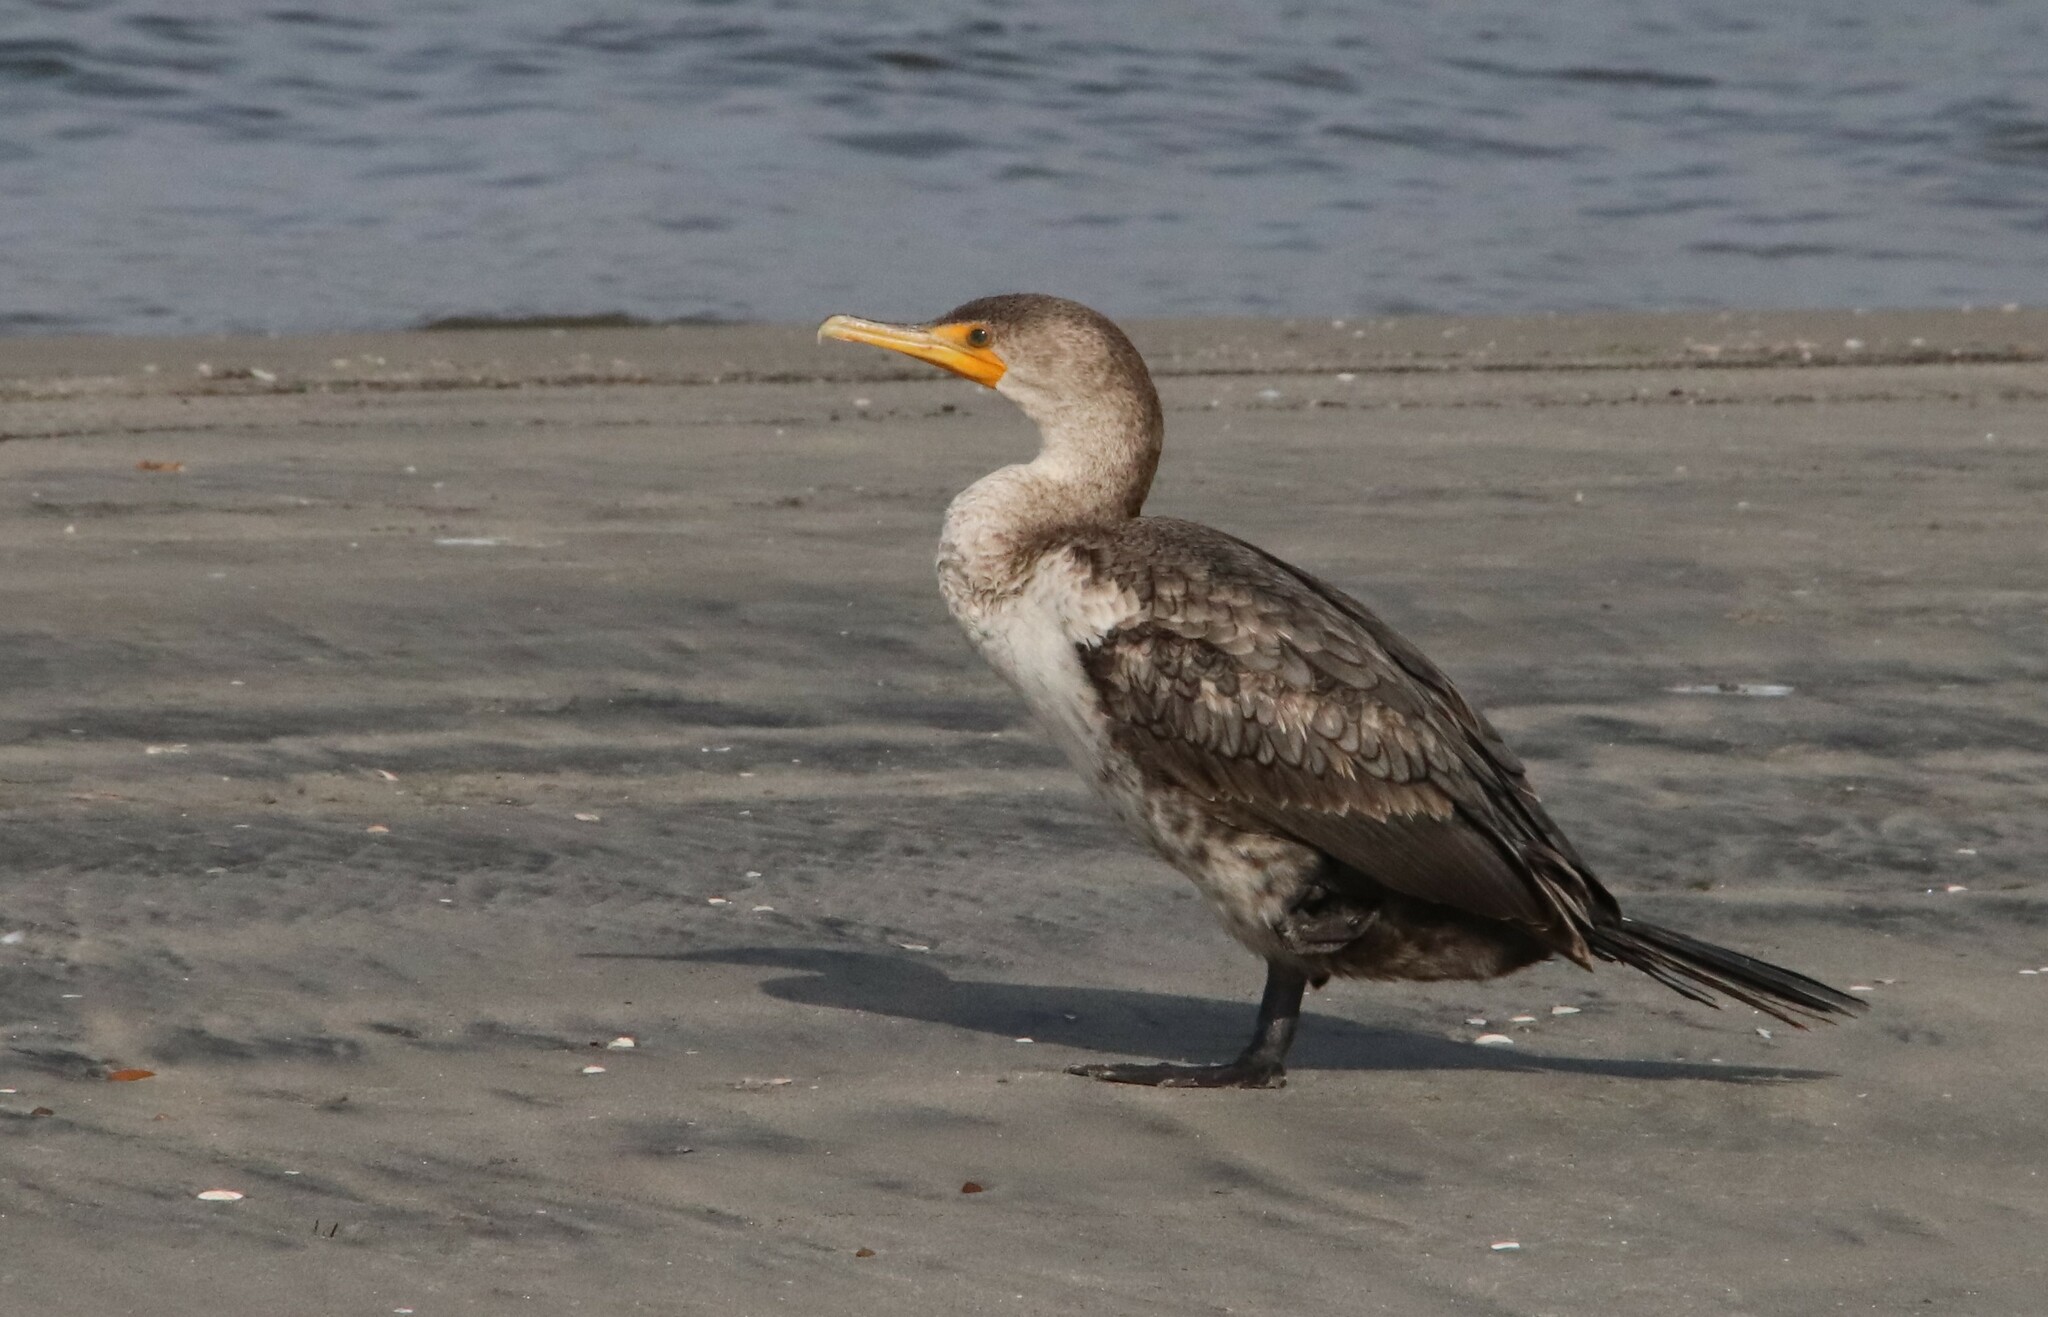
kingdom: Animalia
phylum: Chordata
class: Aves
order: Suliformes
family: Phalacrocoracidae
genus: Phalacrocorax
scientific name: Phalacrocorax auritus
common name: Double-crested cormorant
